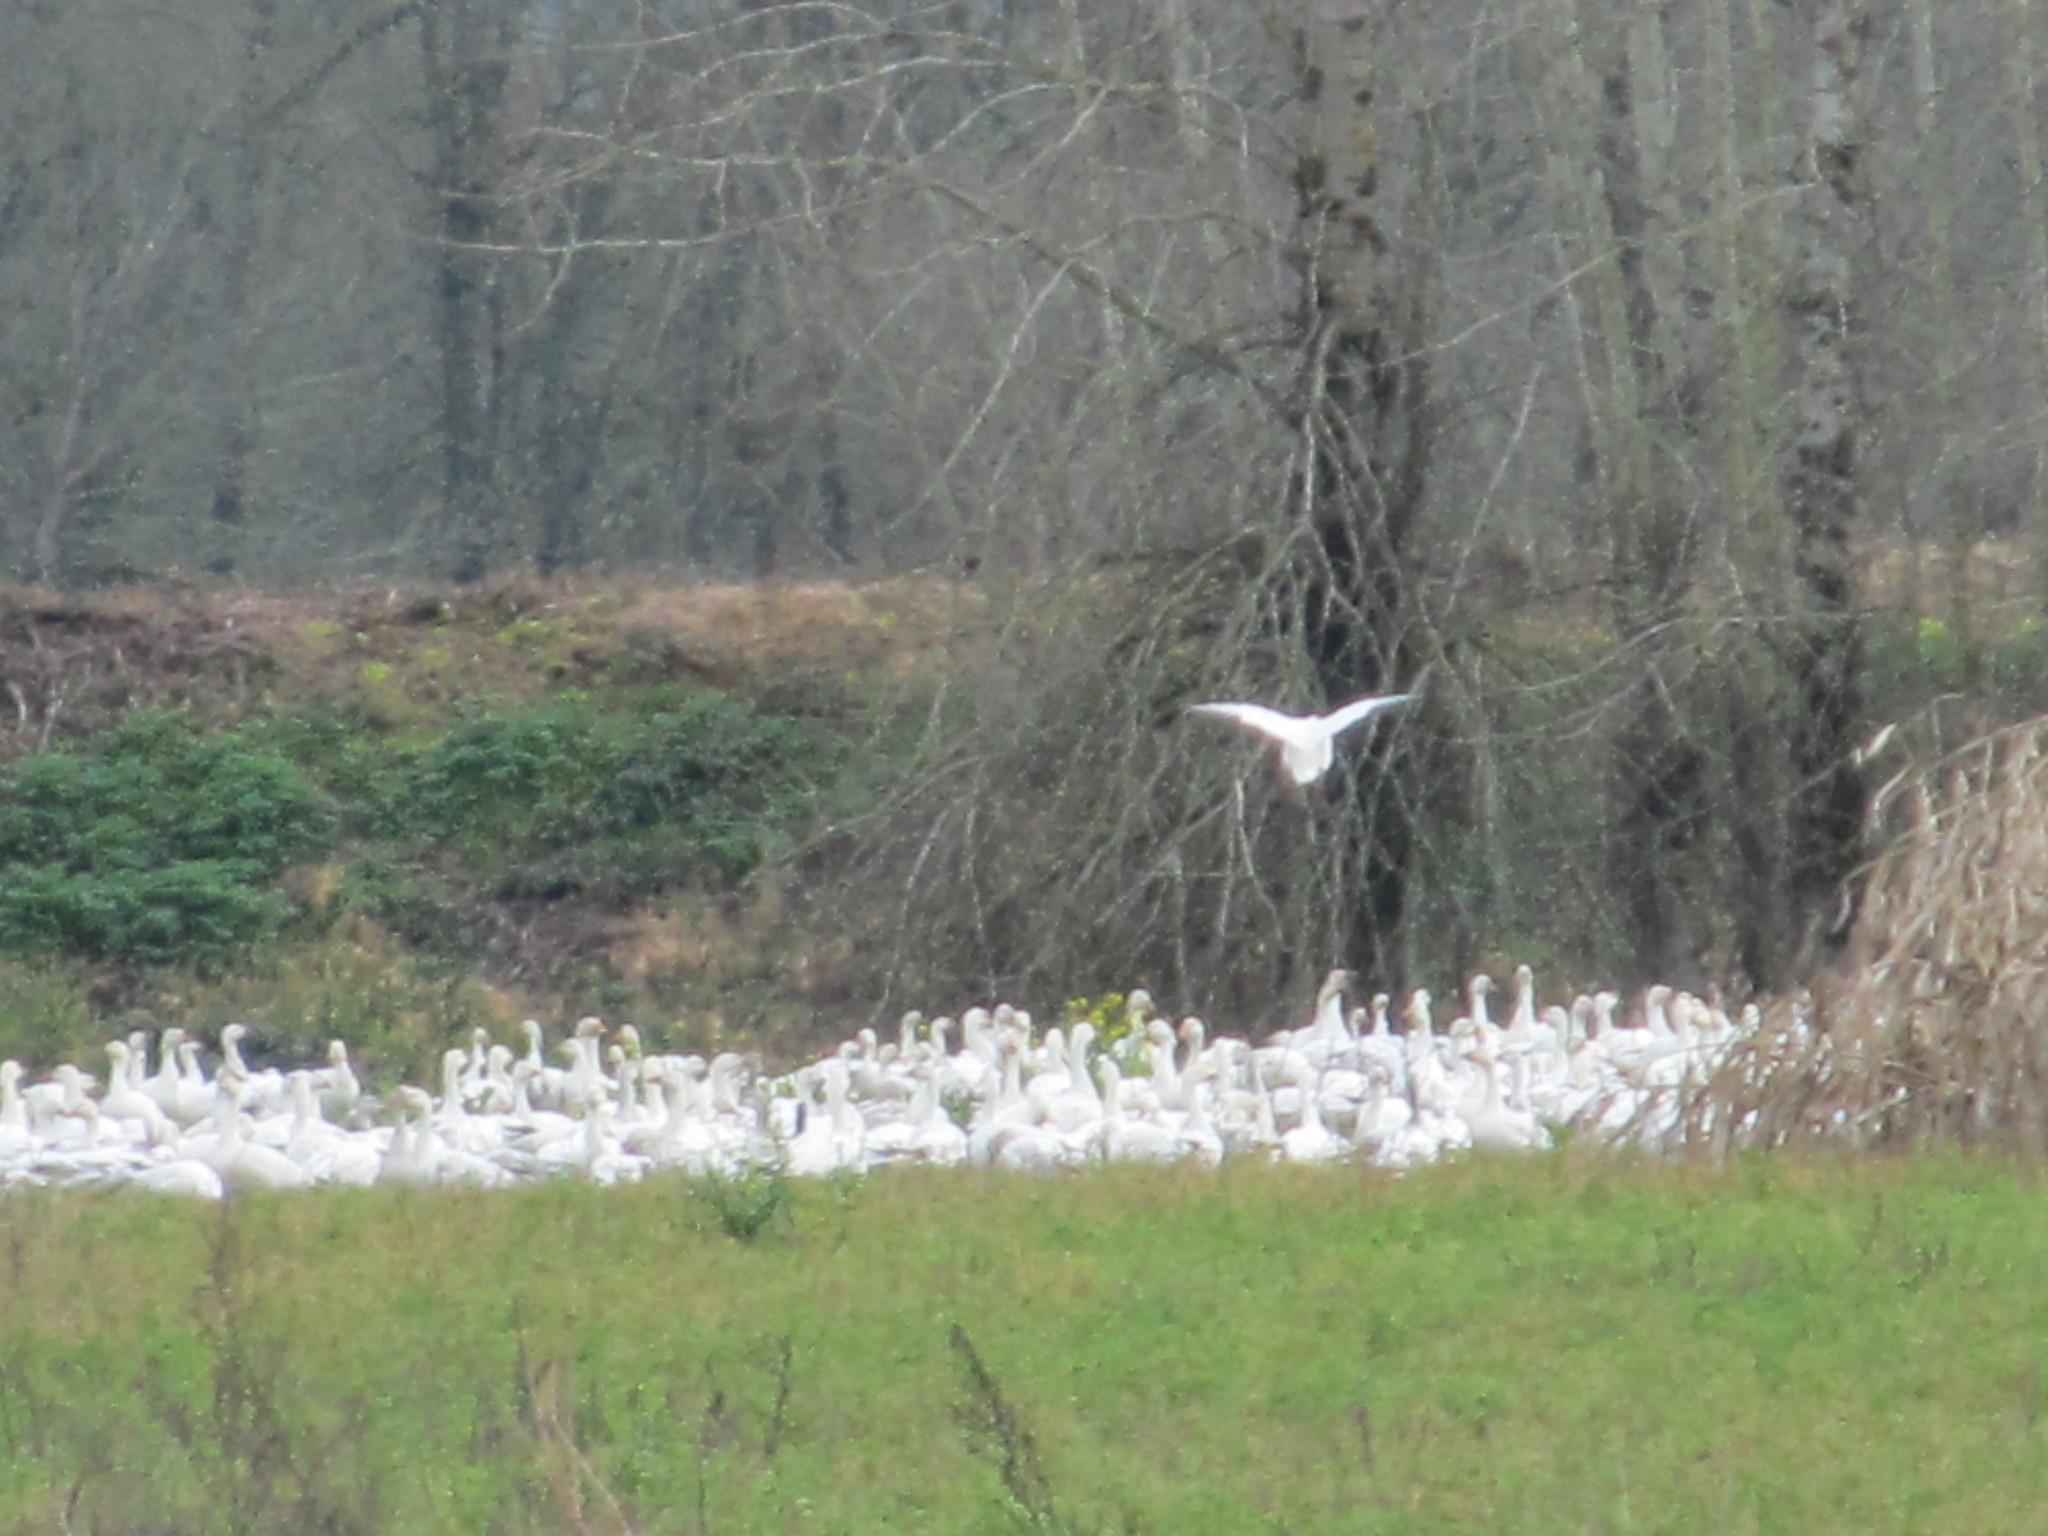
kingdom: Animalia
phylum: Chordata
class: Aves
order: Anseriformes
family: Anatidae
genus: Anser
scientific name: Anser caerulescens
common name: Snow goose
